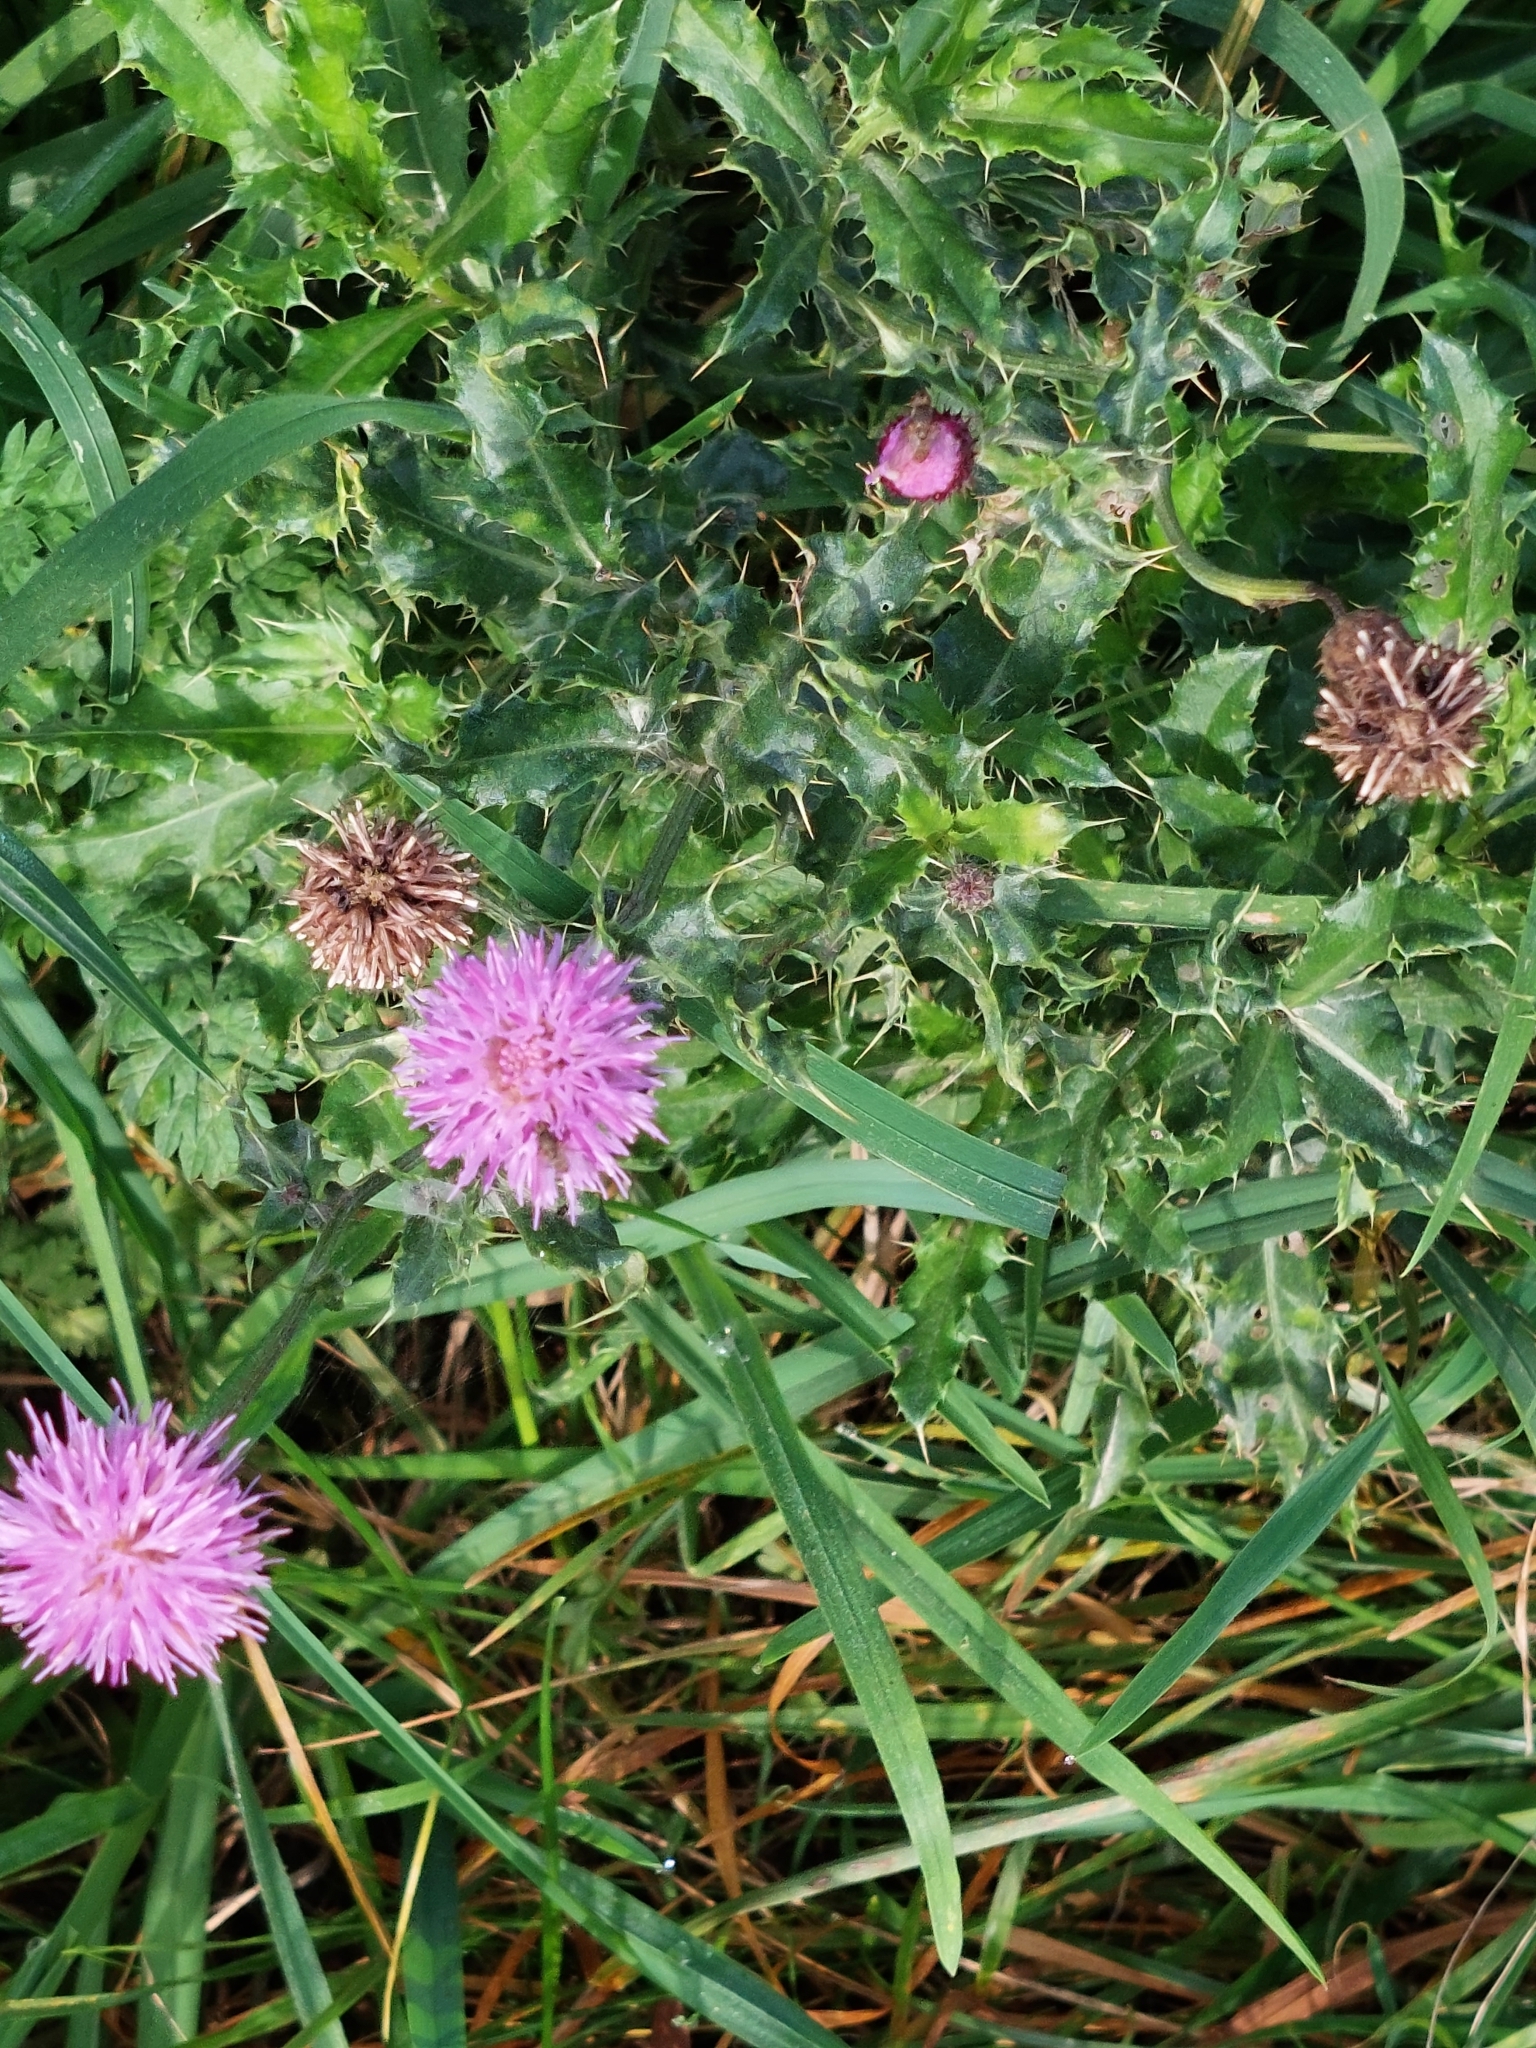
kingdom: Plantae
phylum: Tracheophyta
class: Magnoliopsida
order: Asterales
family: Asteraceae
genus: Cirsium
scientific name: Cirsium arvense
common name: Creeping thistle
